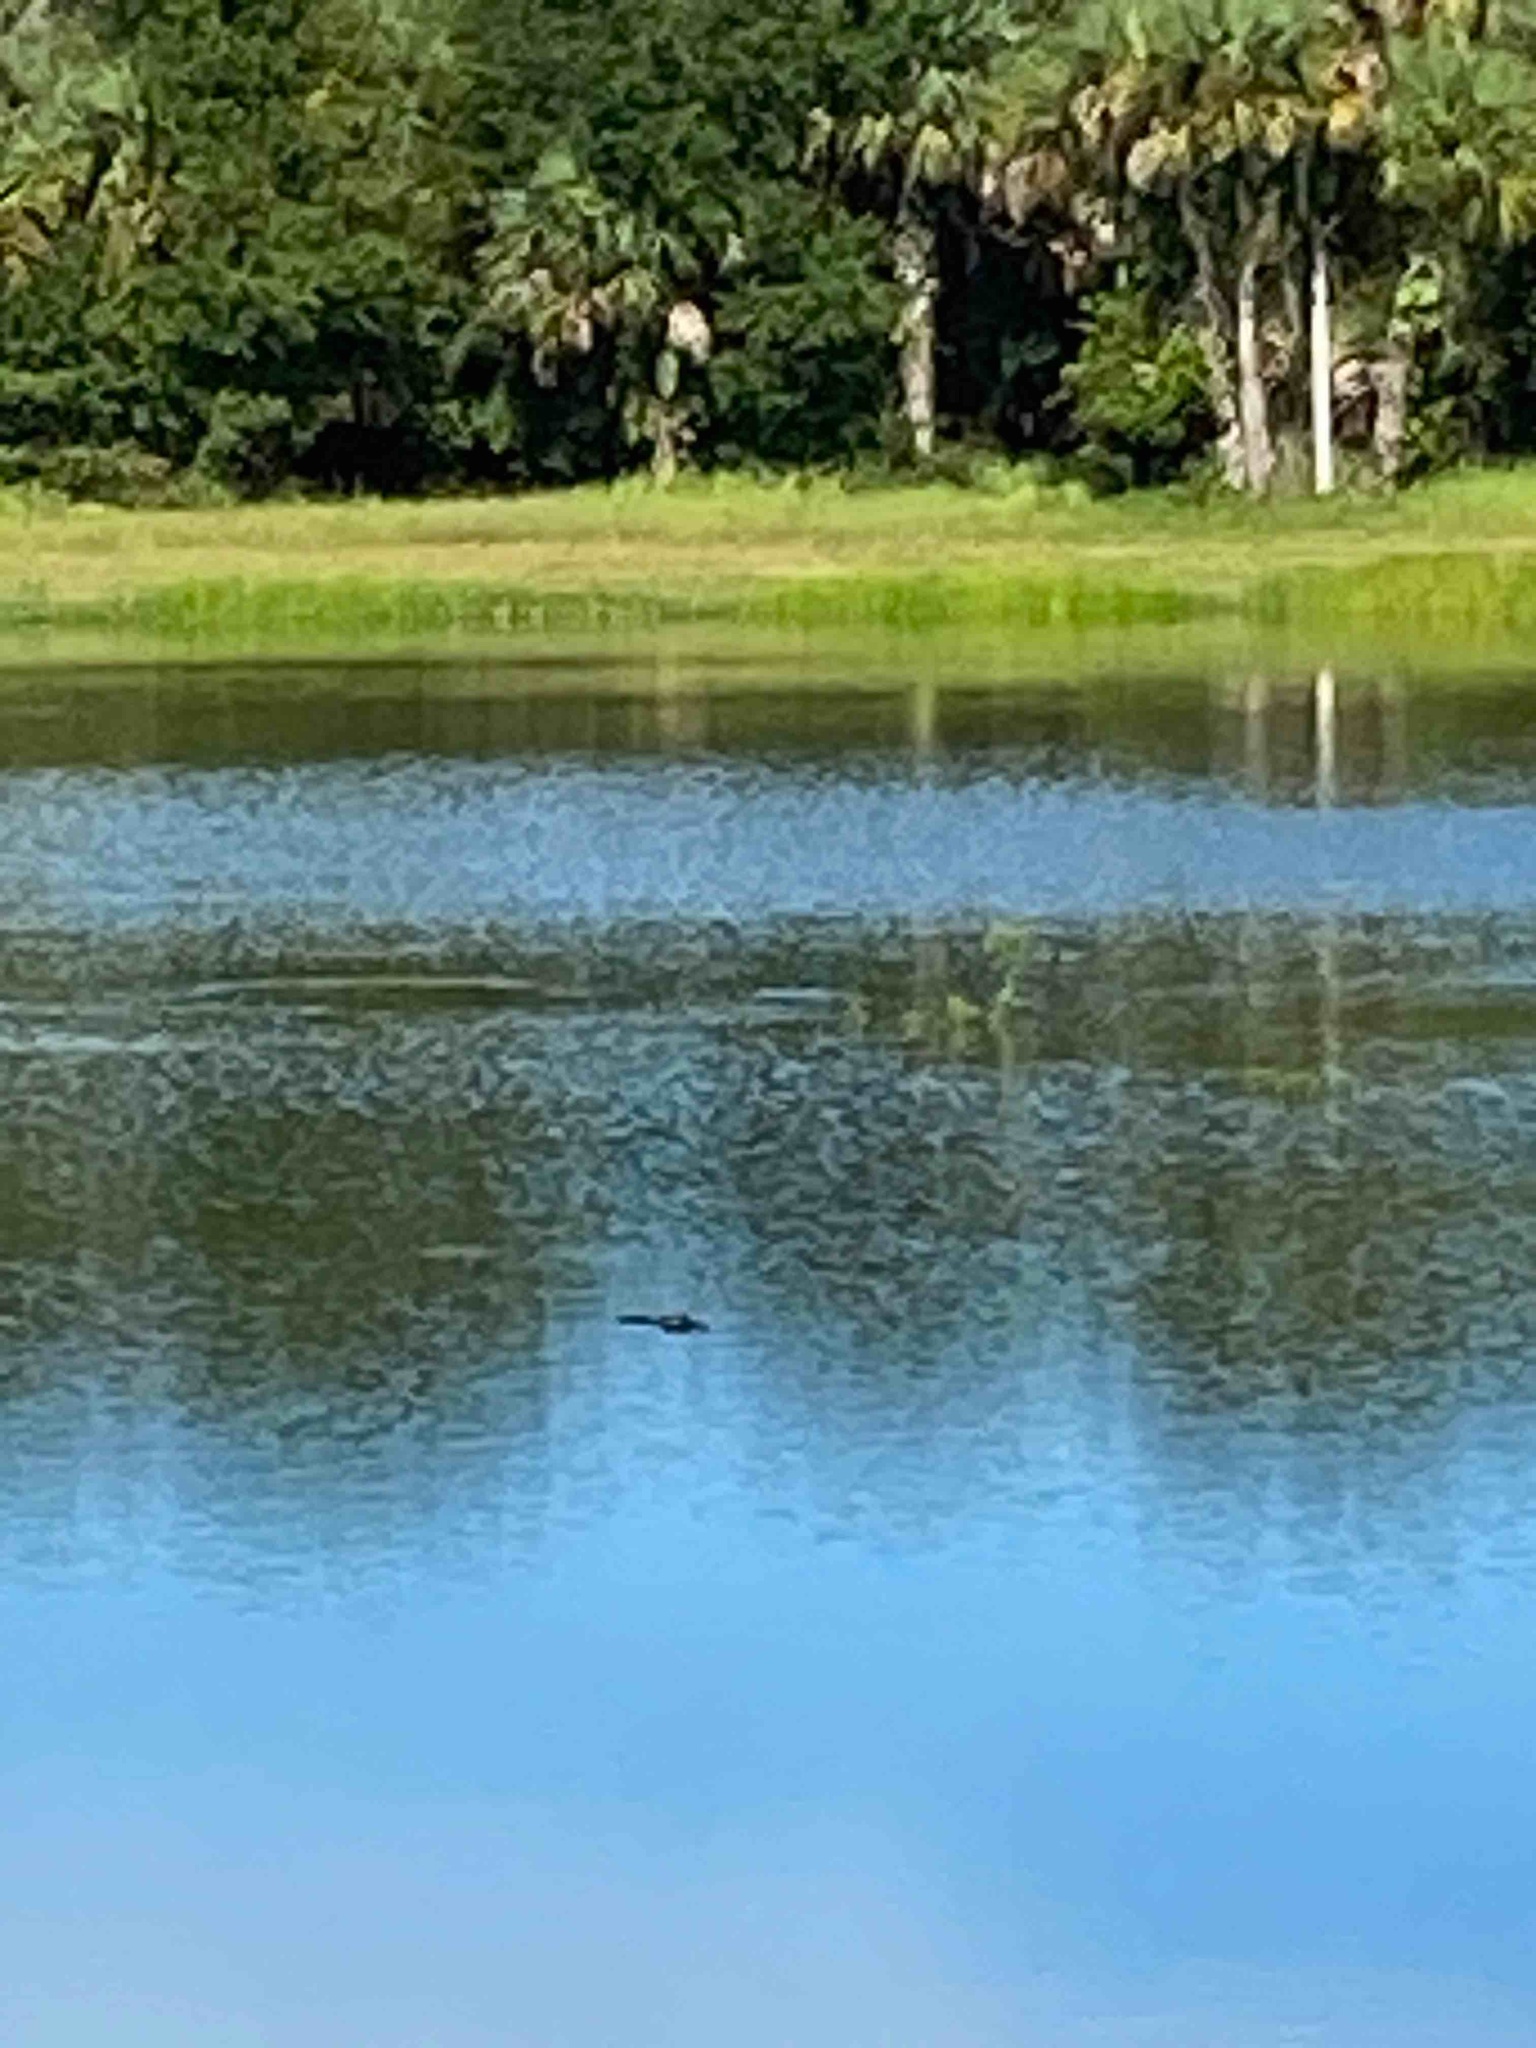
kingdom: Animalia
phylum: Chordata
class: Crocodylia
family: Alligatoridae
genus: Alligator
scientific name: Alligator mississippiensis
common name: American alligator
